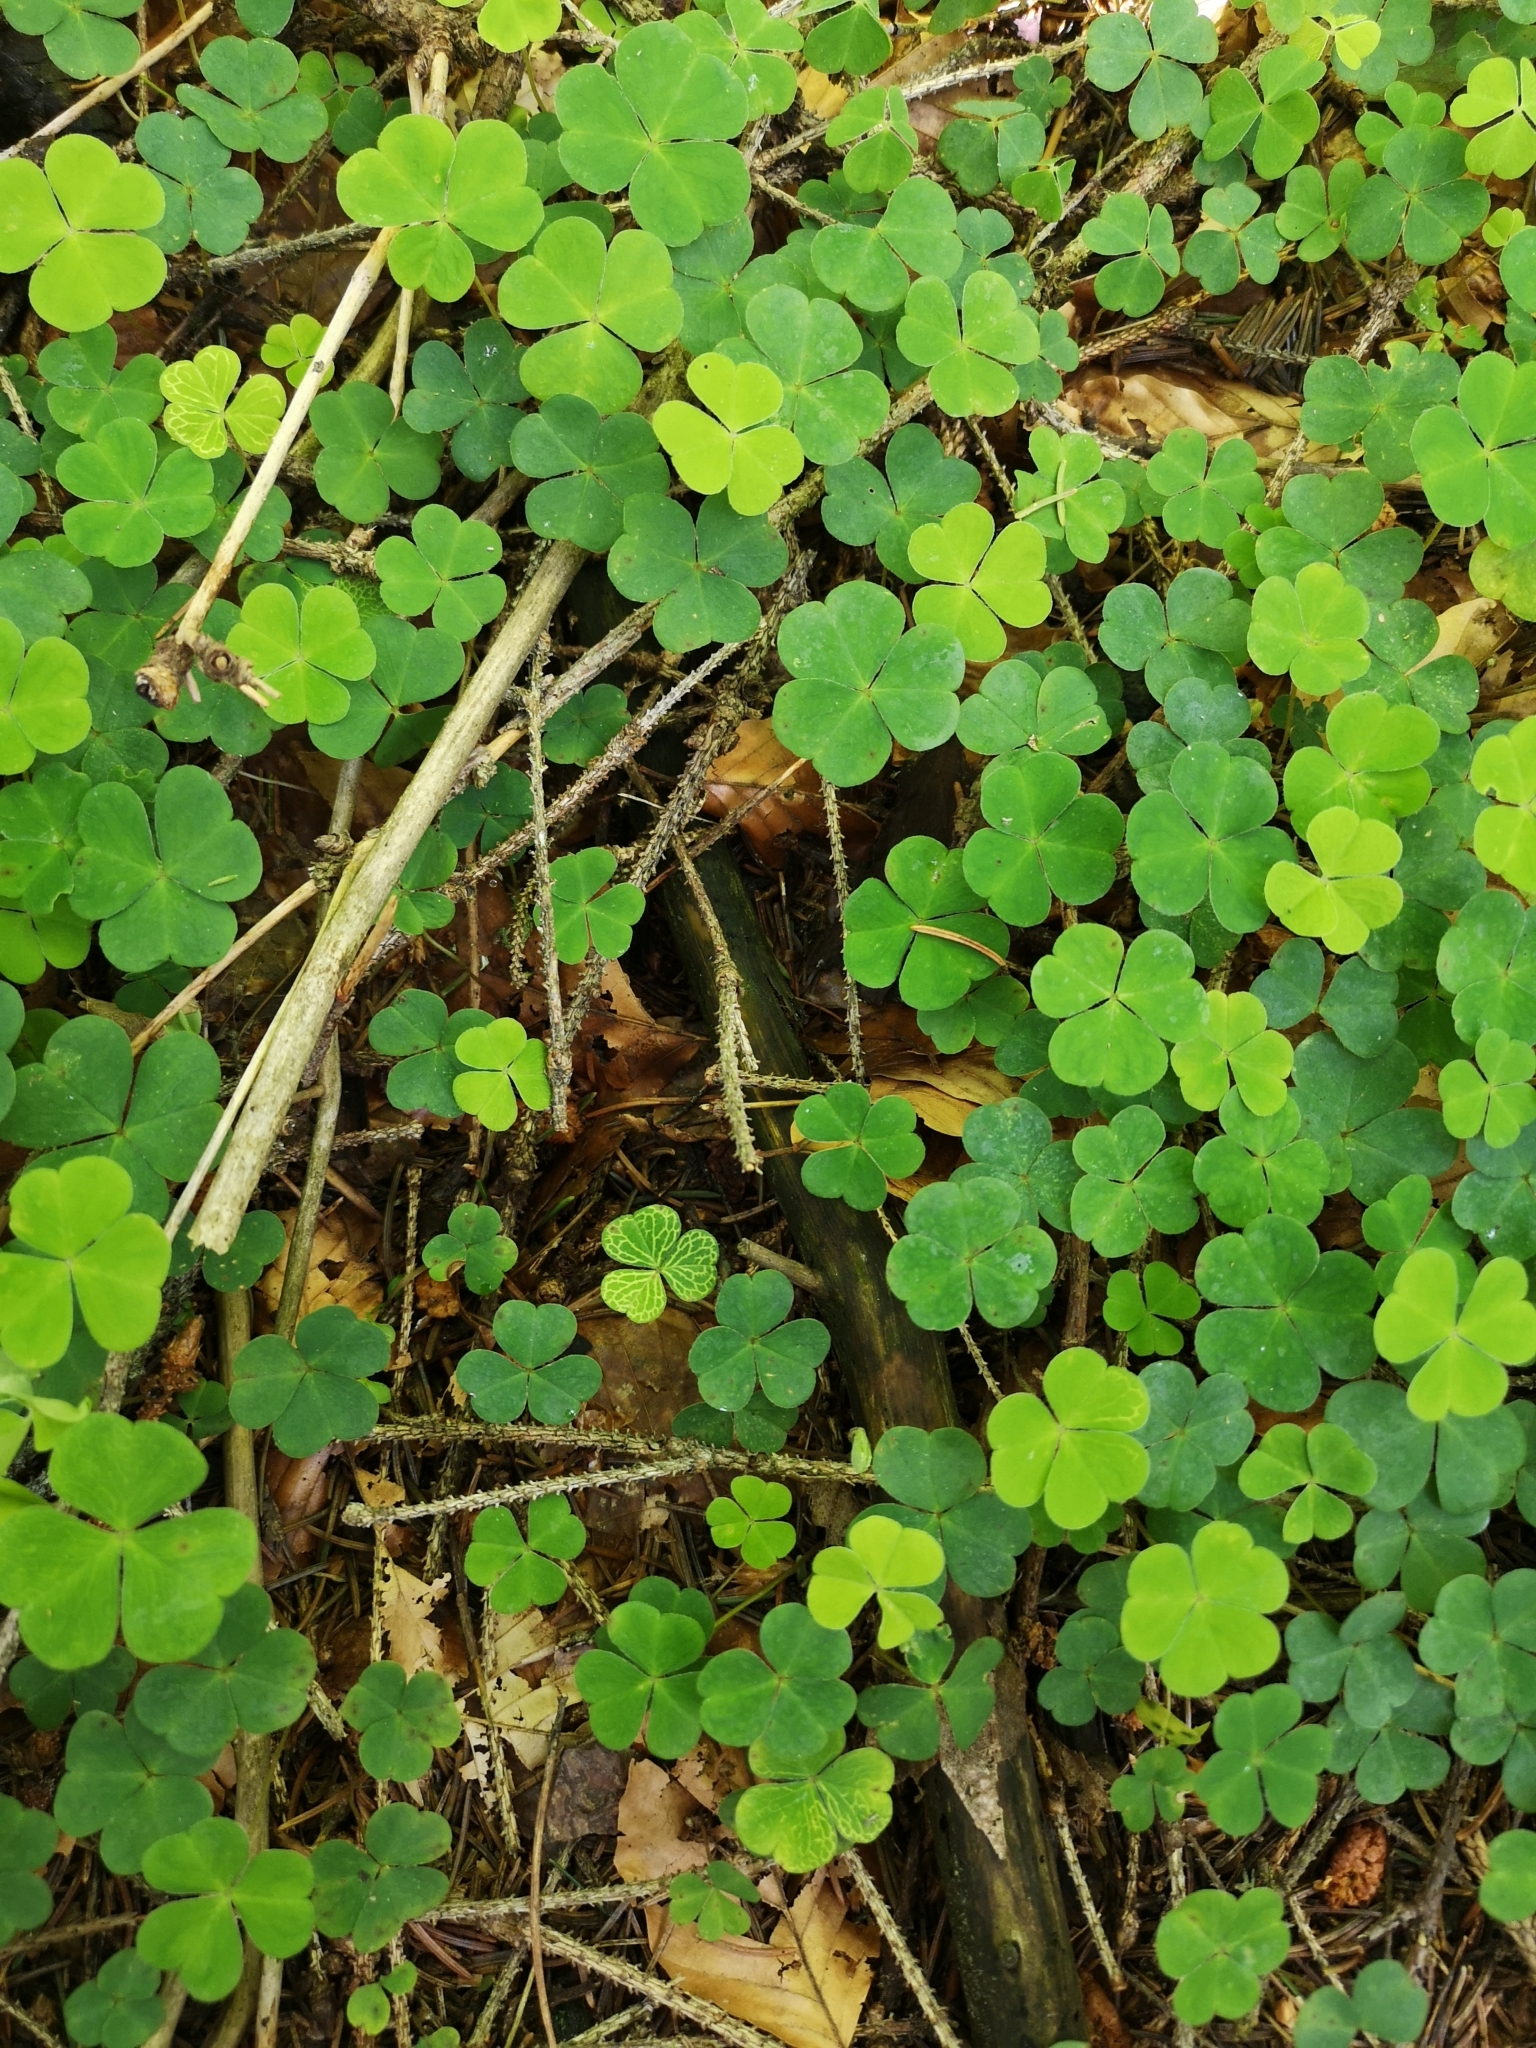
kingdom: Plantae
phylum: Tracheophyta
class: Magnoliopsida
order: Oxalidales
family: Oxalidaceae
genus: Oxalis
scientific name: Oxalis acetosella
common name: Wood-sorrel
